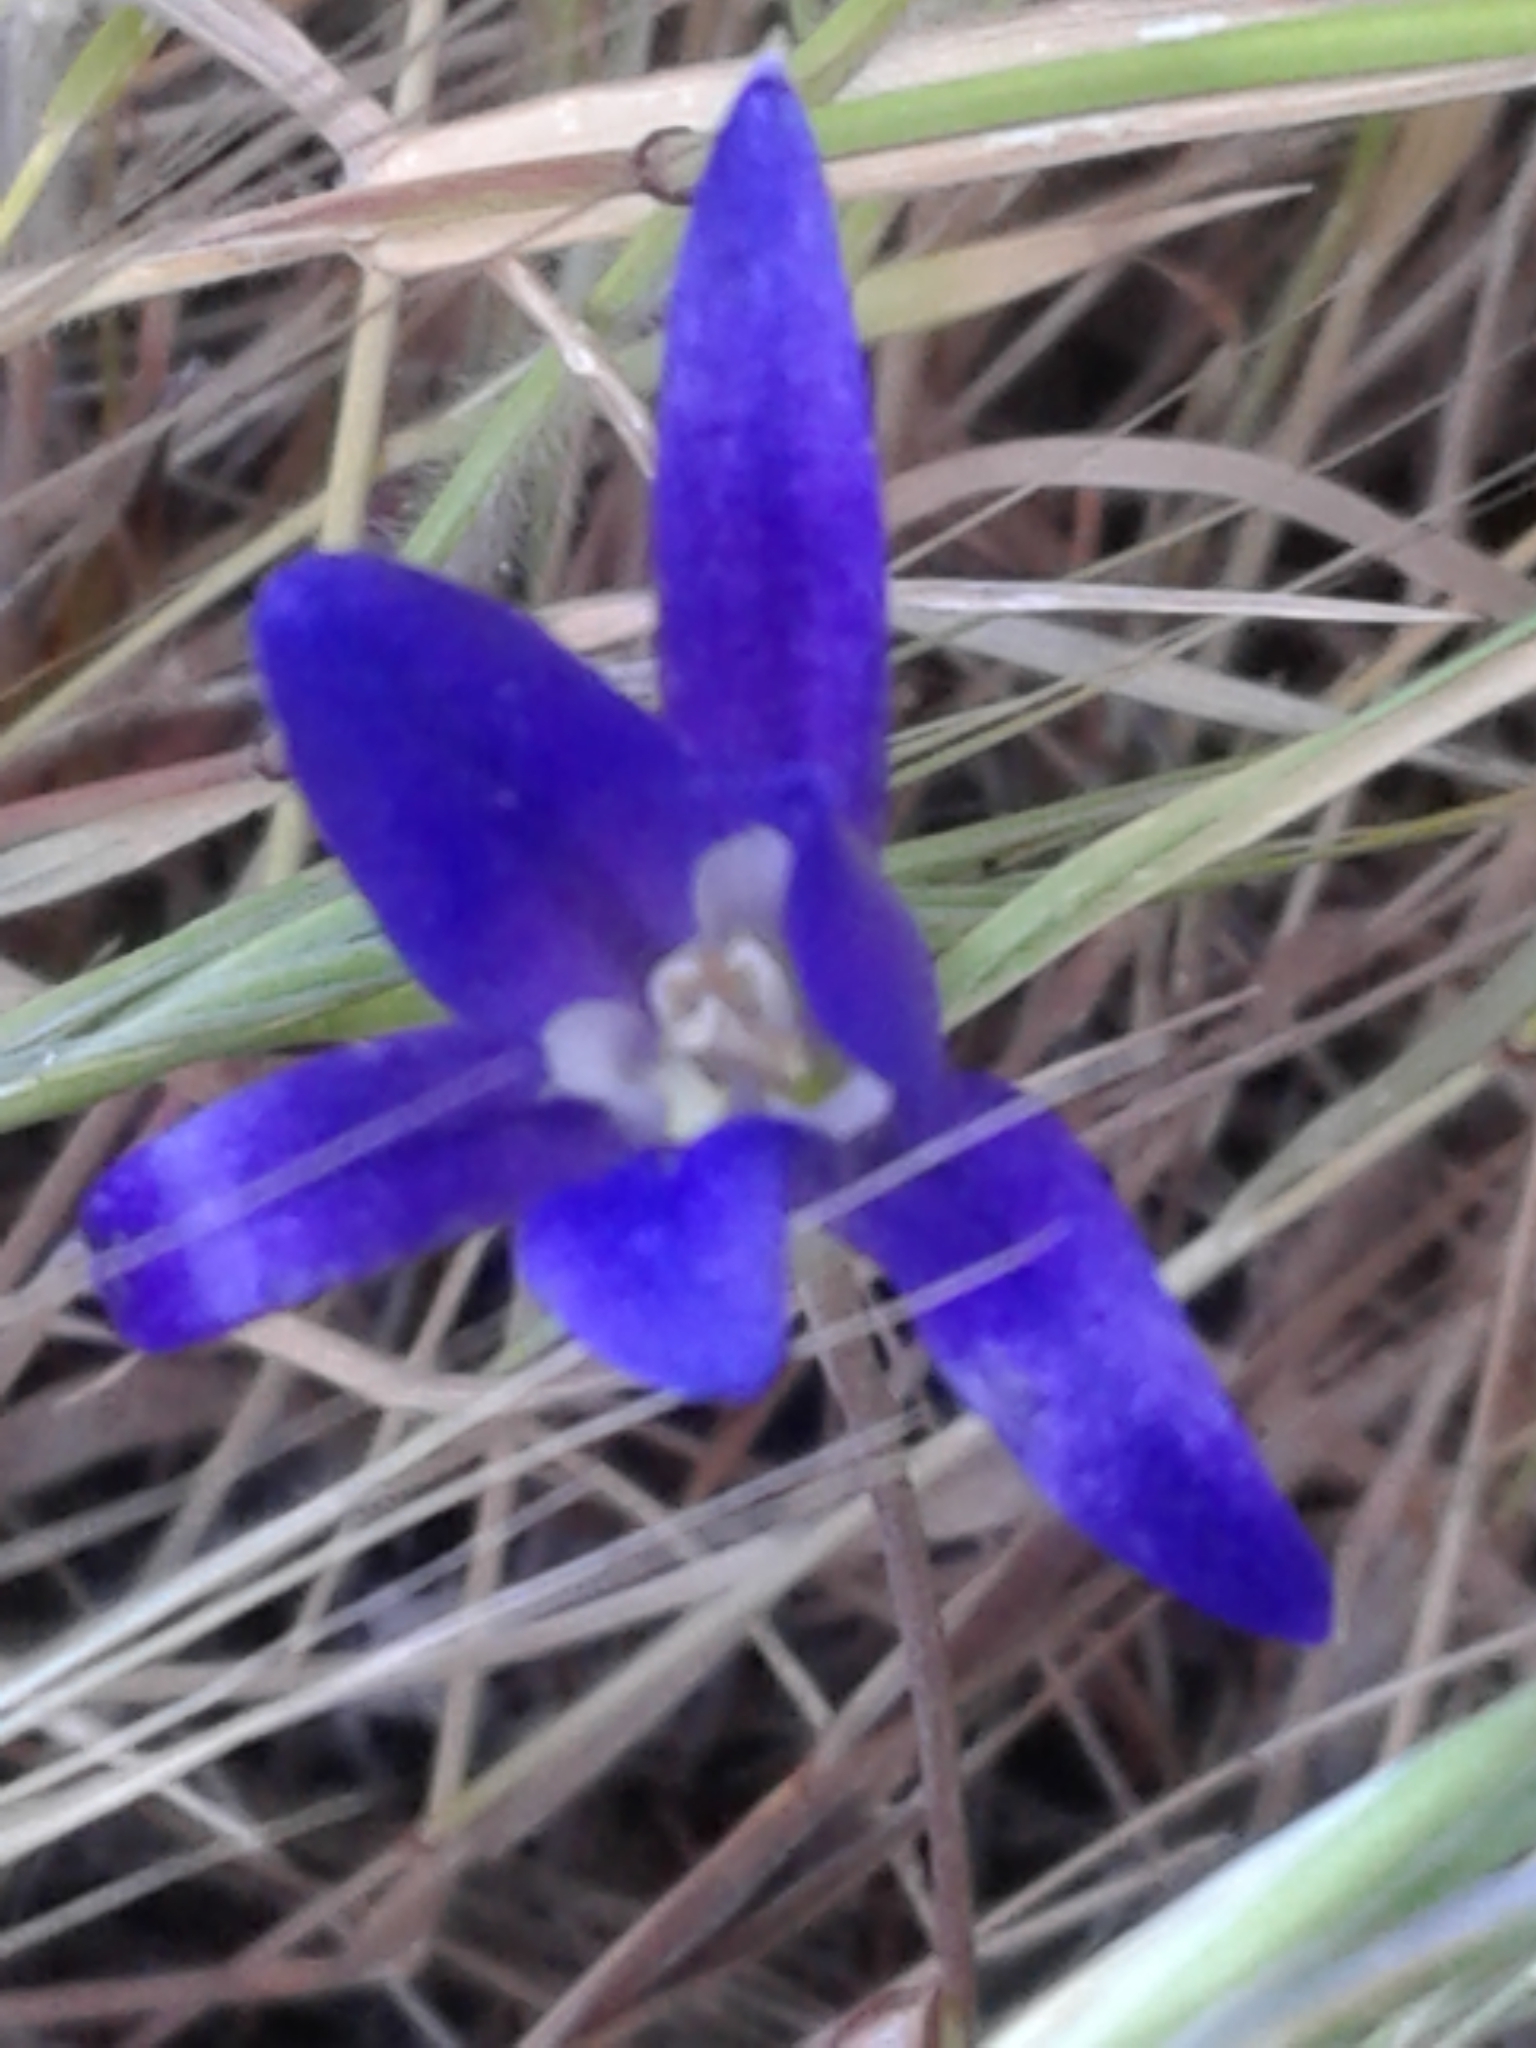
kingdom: Plantae
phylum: Tracheophyta
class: Liliopsida
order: Asparagales
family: Asparagaceae
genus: Brodiaea
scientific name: Brodiaea coronaria
